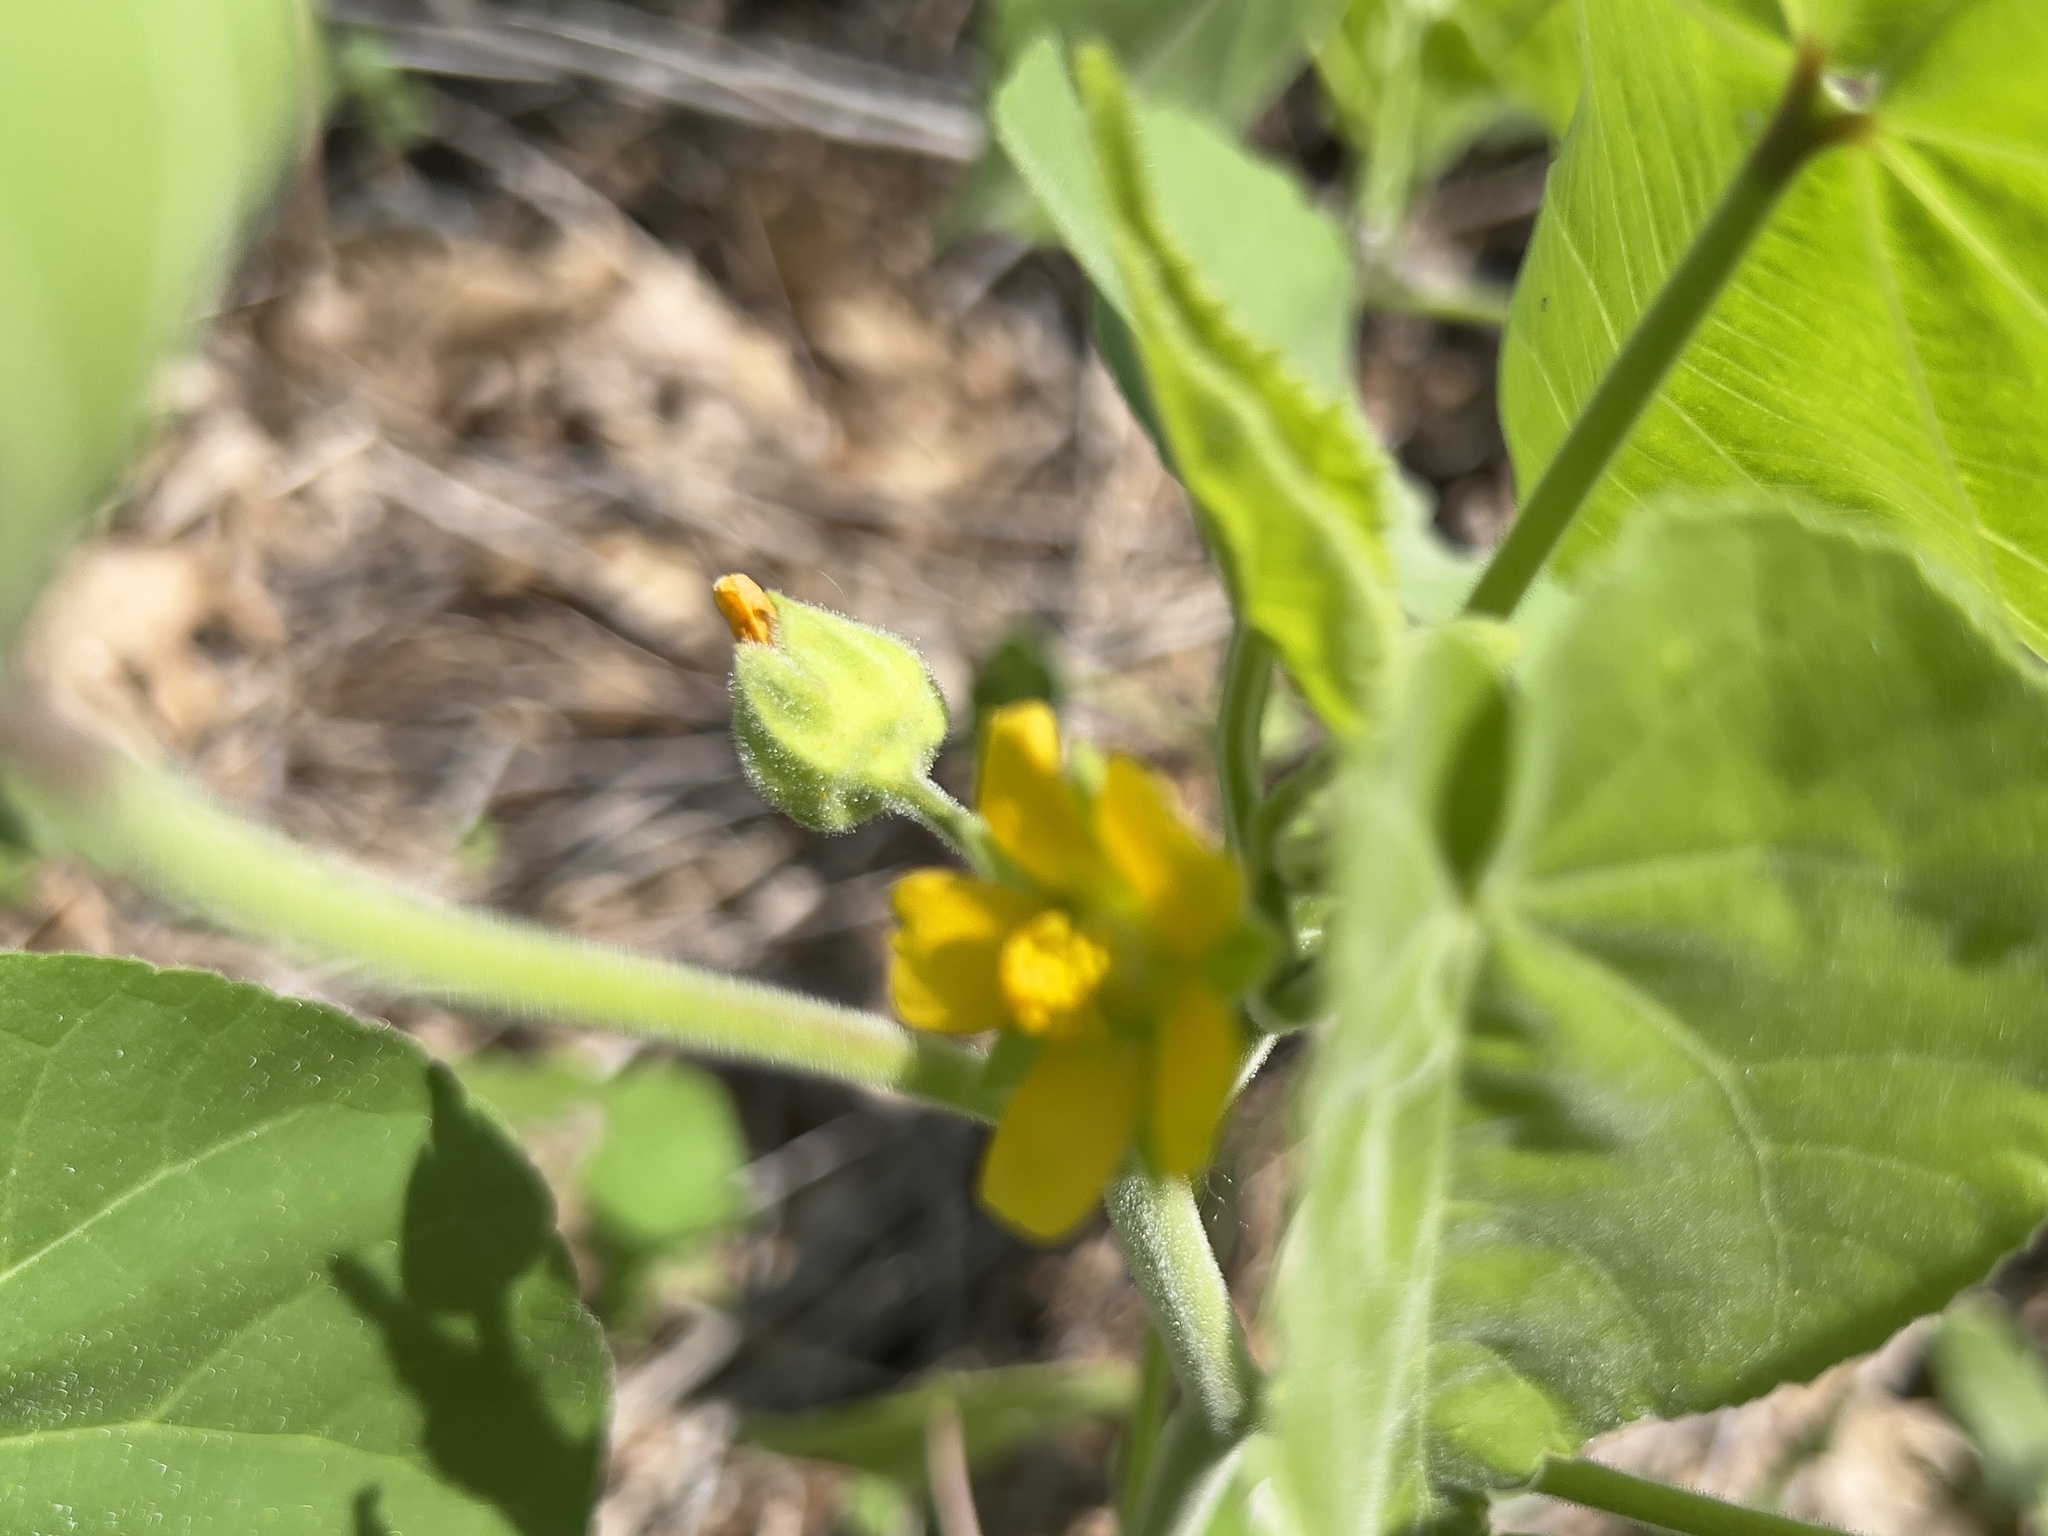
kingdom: Plantae
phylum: Tracheophyta
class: Magnoliopsida
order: Malvales
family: Malvaceae
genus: Abutilon
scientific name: Abutilon theophrasti
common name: Velvetleaf
